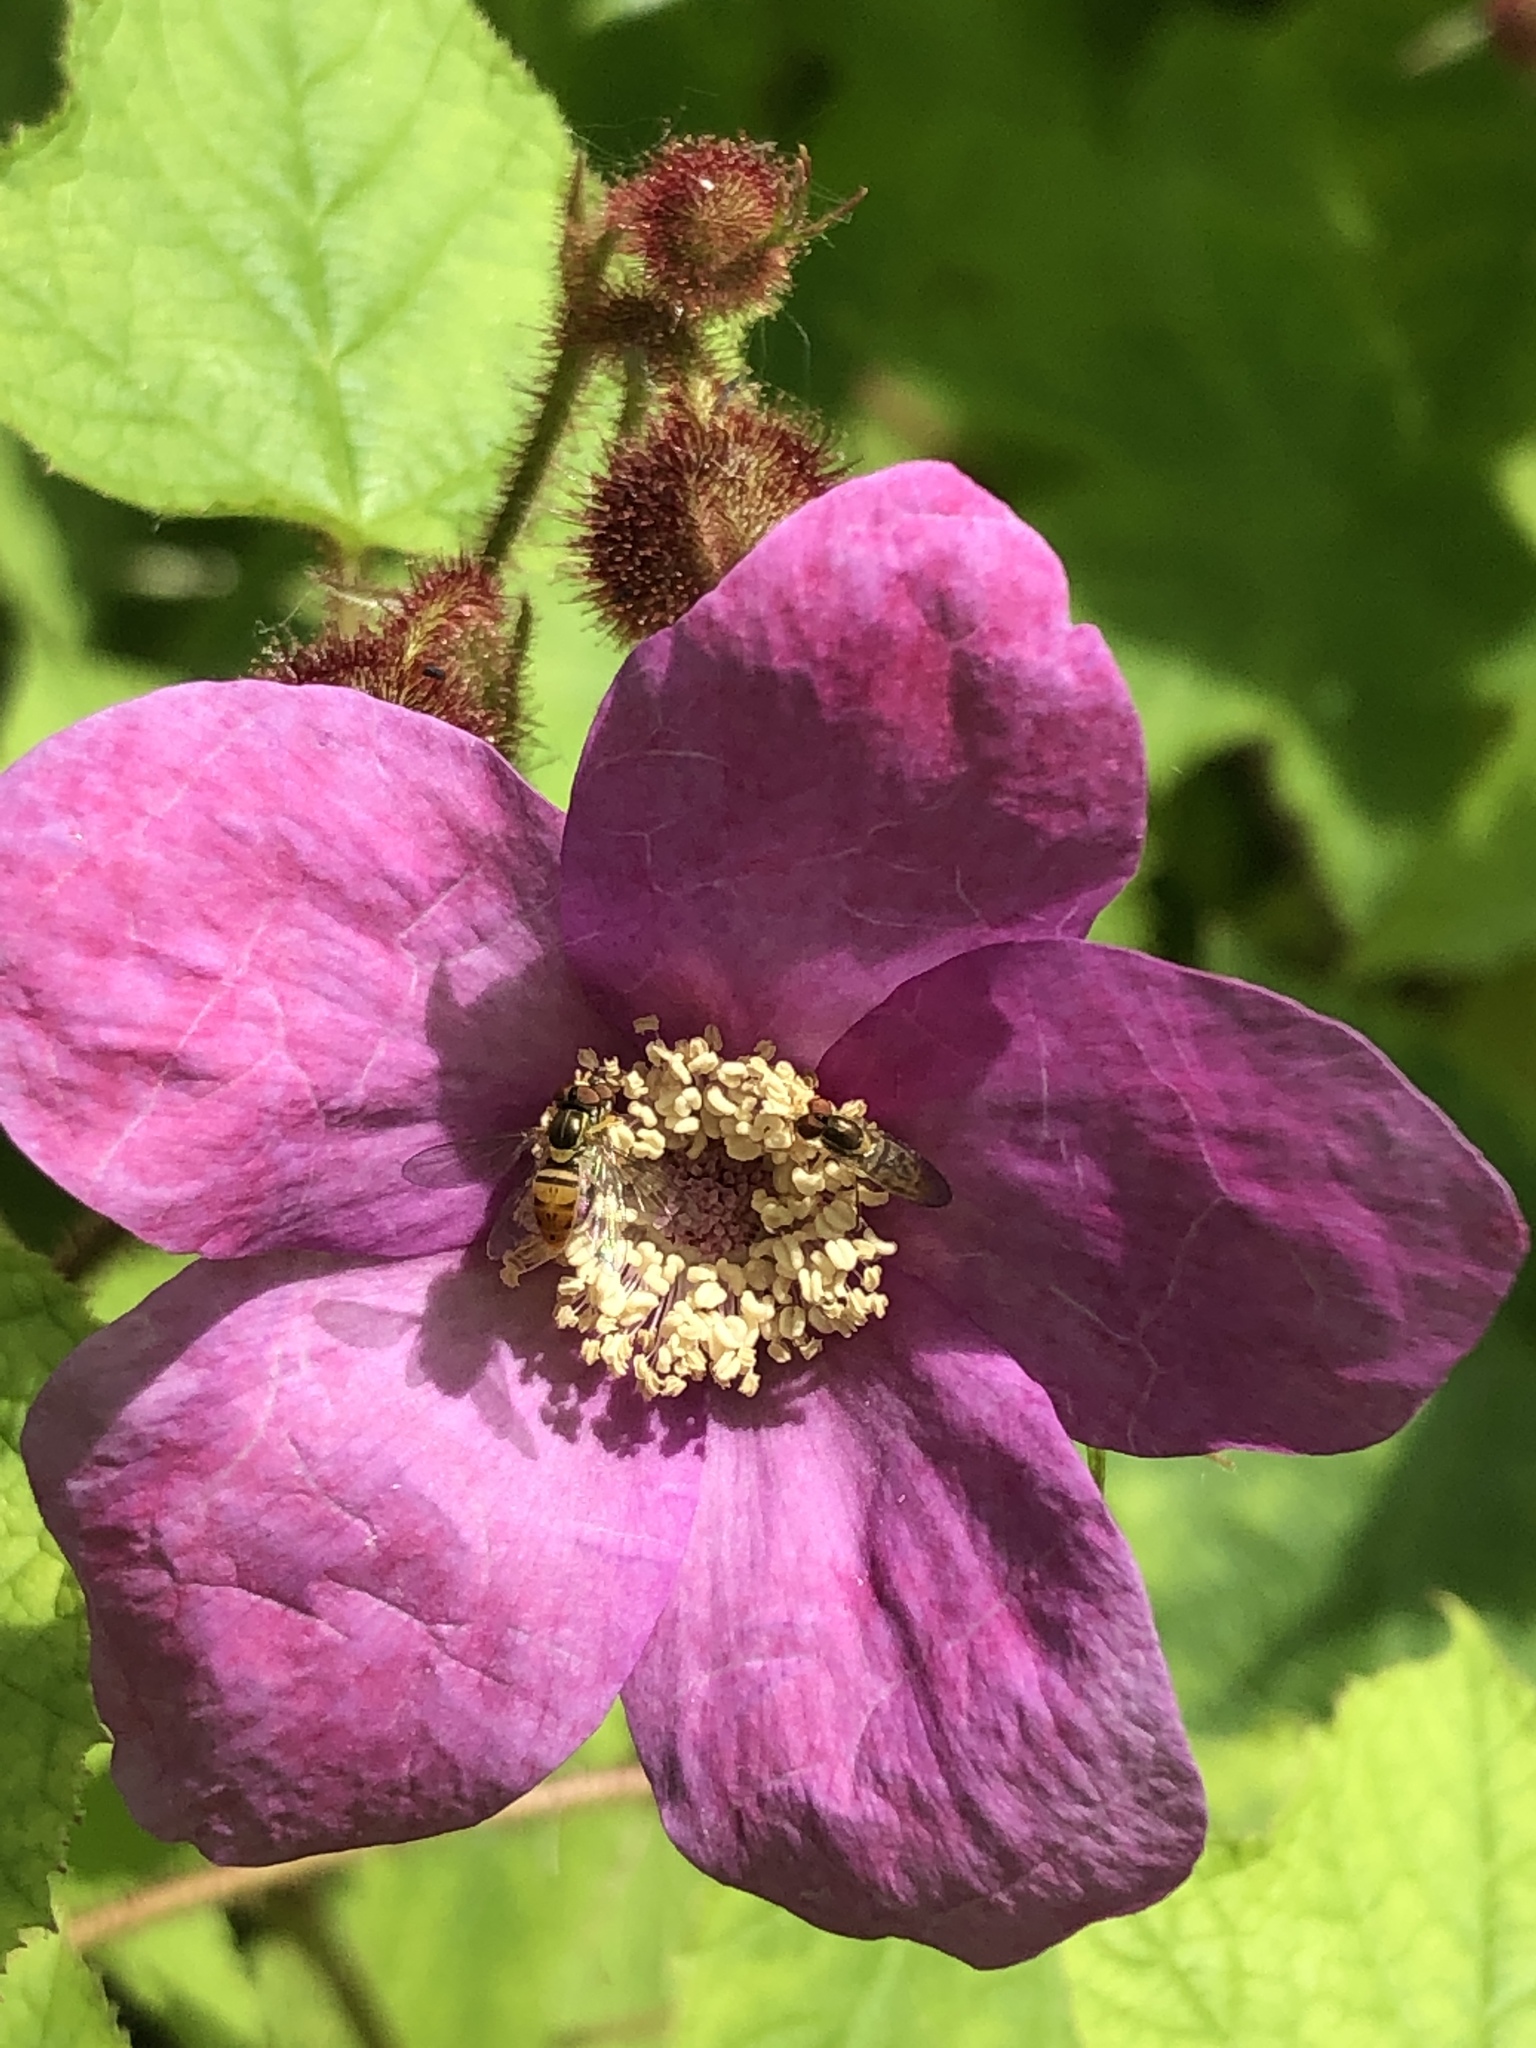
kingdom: Plantae
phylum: Tracheophyta
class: Magnoliopsida
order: Rosales
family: Rosaceae
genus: Rubus
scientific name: Rubus odoratus
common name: Purple-flowered raspberry
